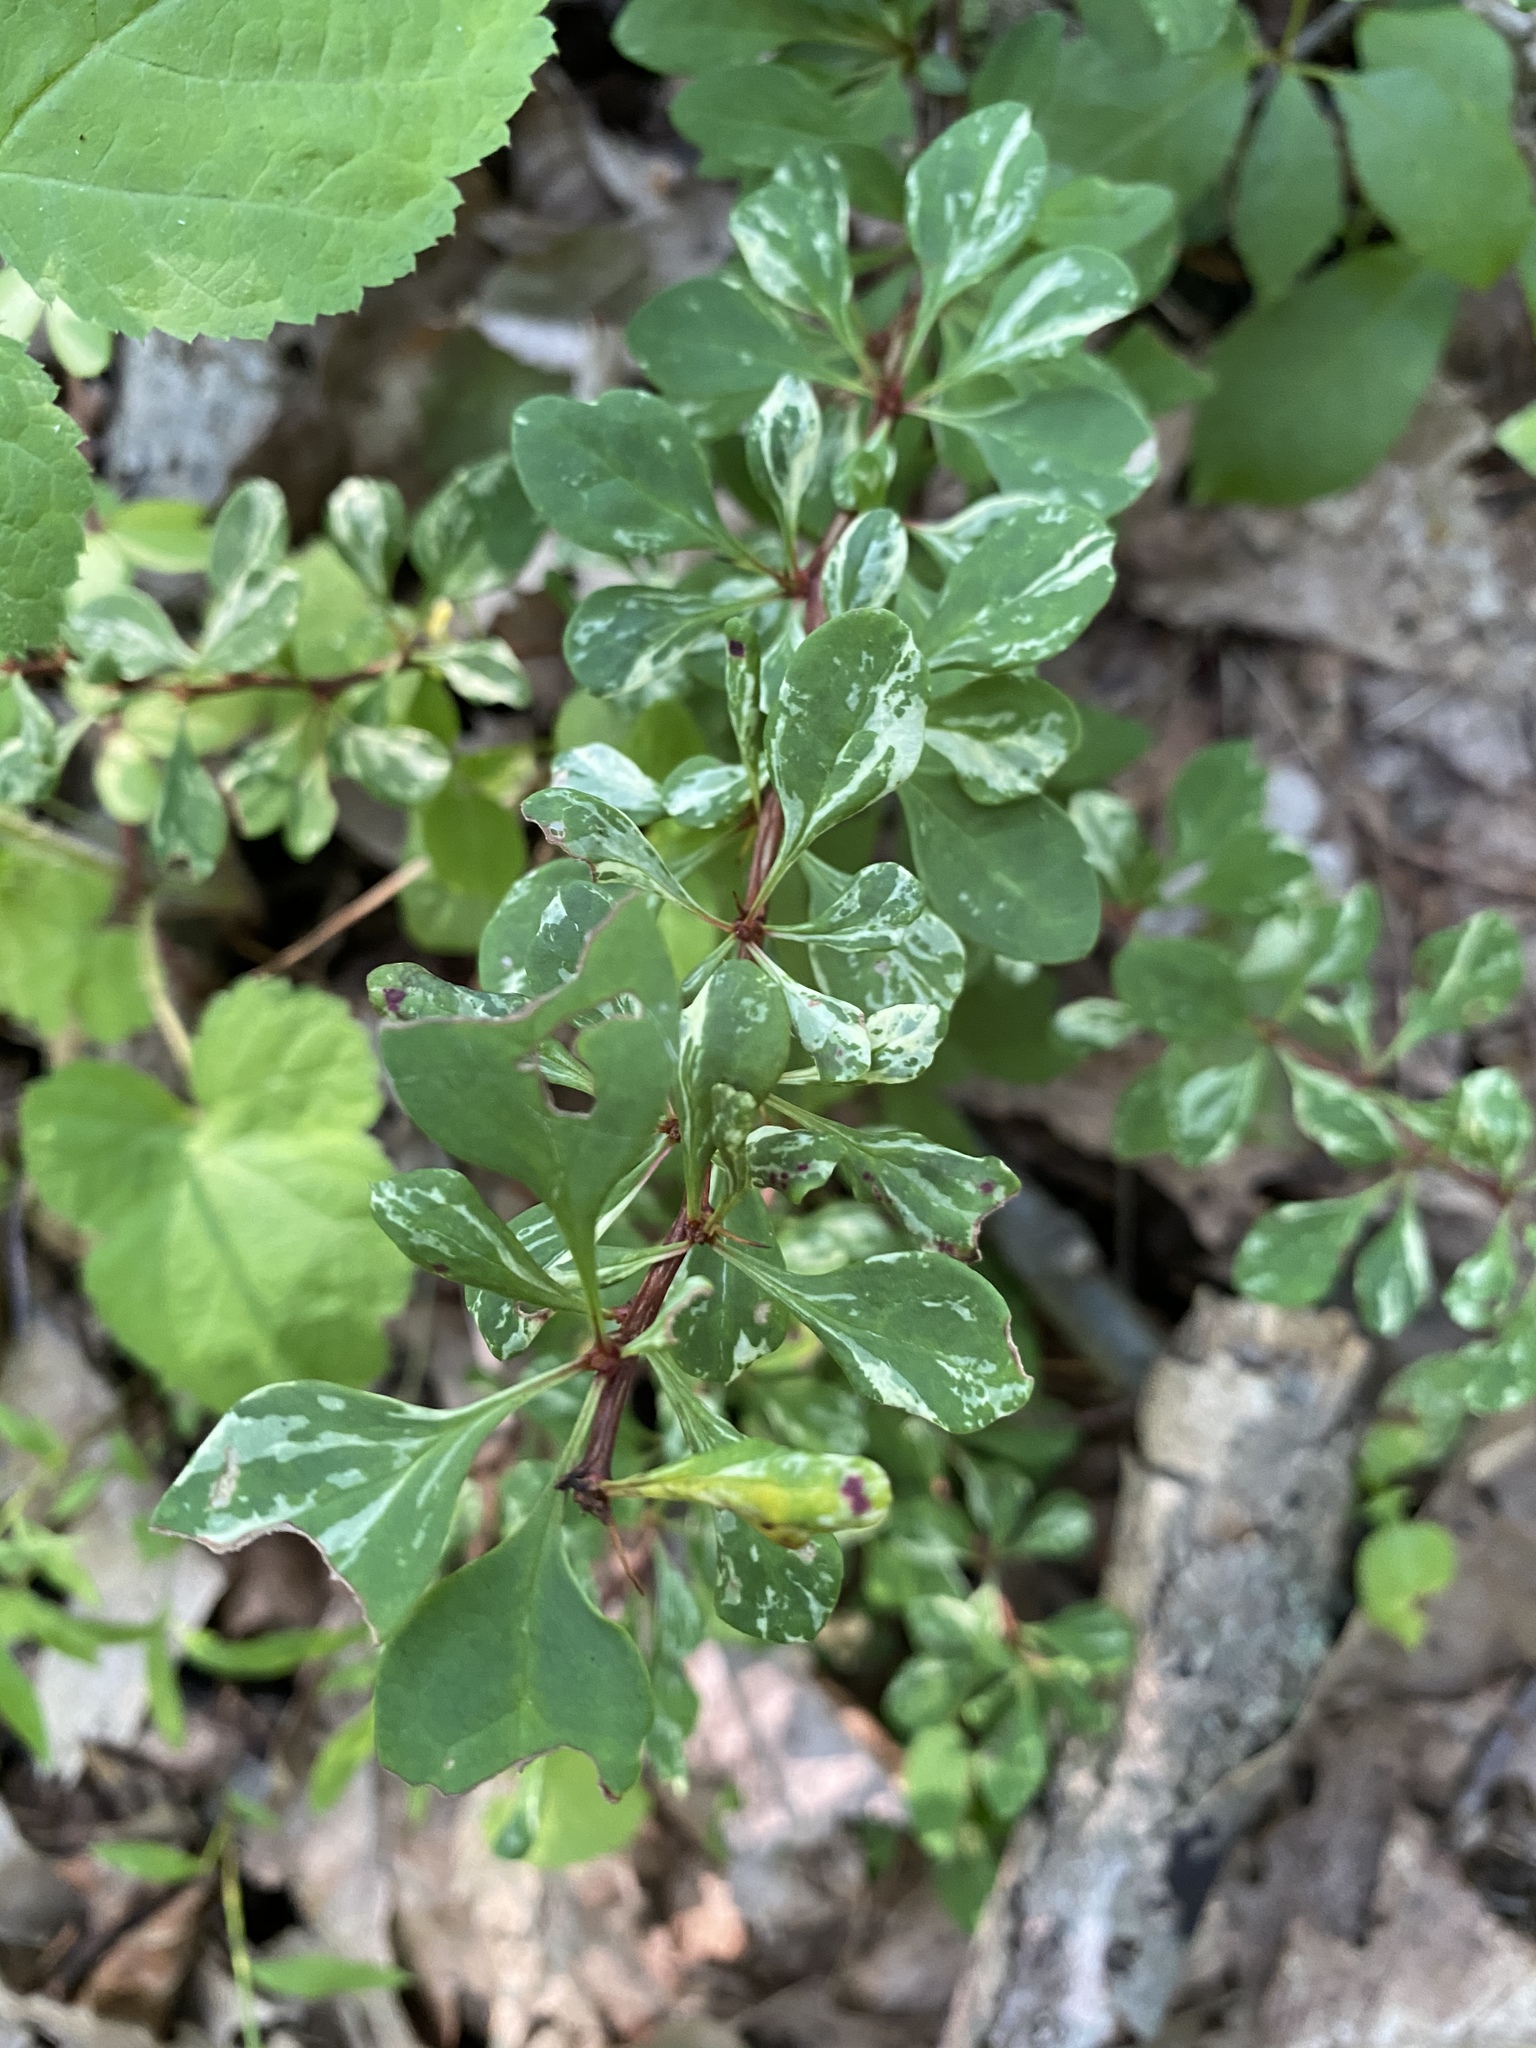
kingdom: Plantae
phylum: Tracheophyta
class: Magnoliopsida
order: Ranunculales
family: Berberidaceae
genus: Berberis
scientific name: Berberis thunbergii
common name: Japanese barberry
